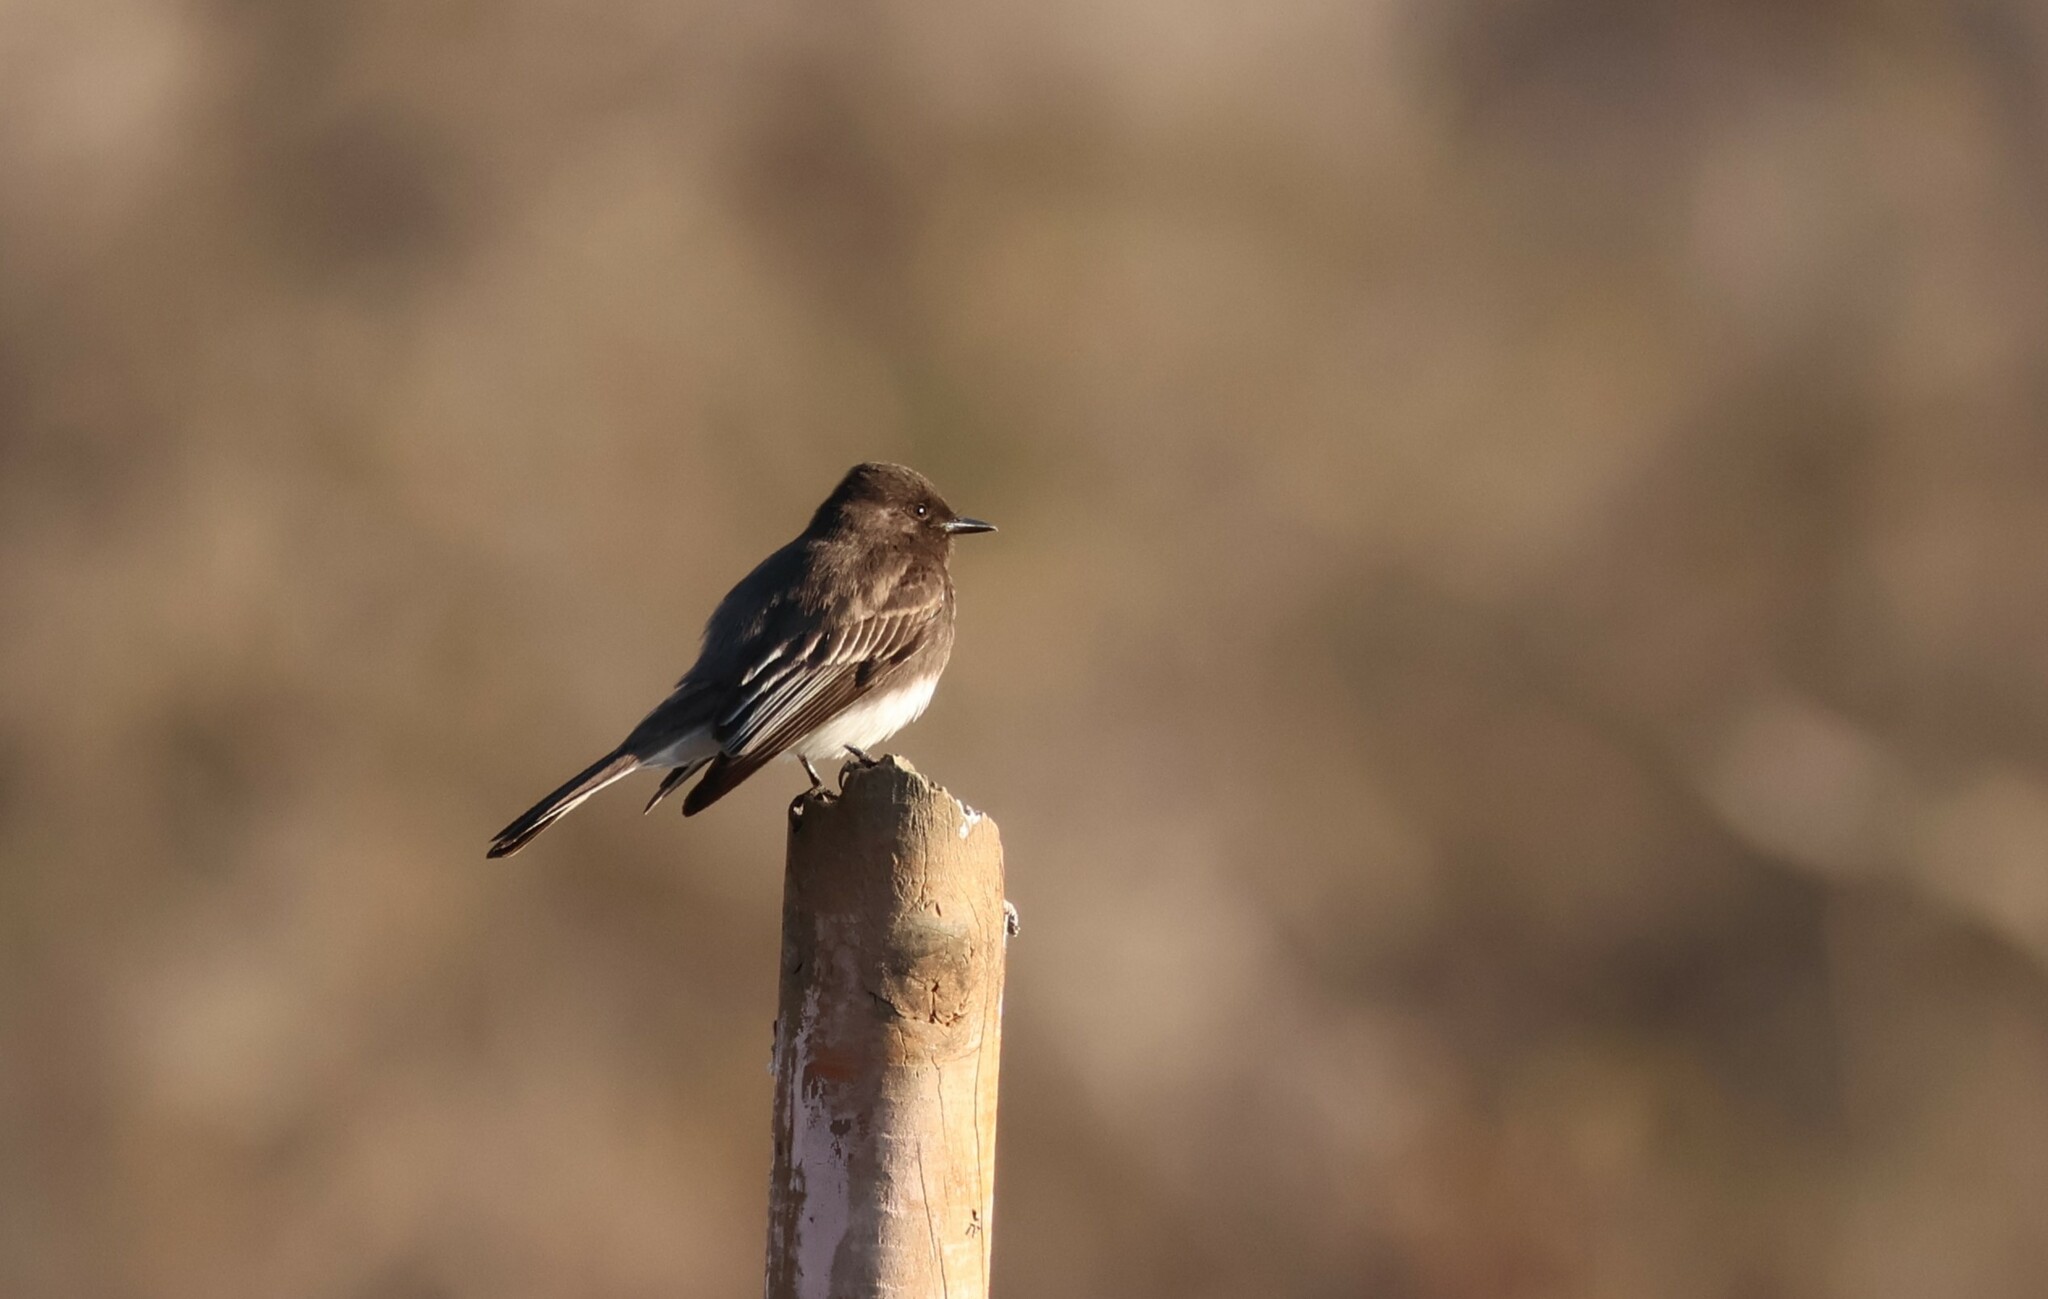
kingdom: Animalia
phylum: Chordata
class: Aves
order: Passeriformes
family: Tyrannidae
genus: Sayornis
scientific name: Sayornis nigricans
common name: Black phoebe
